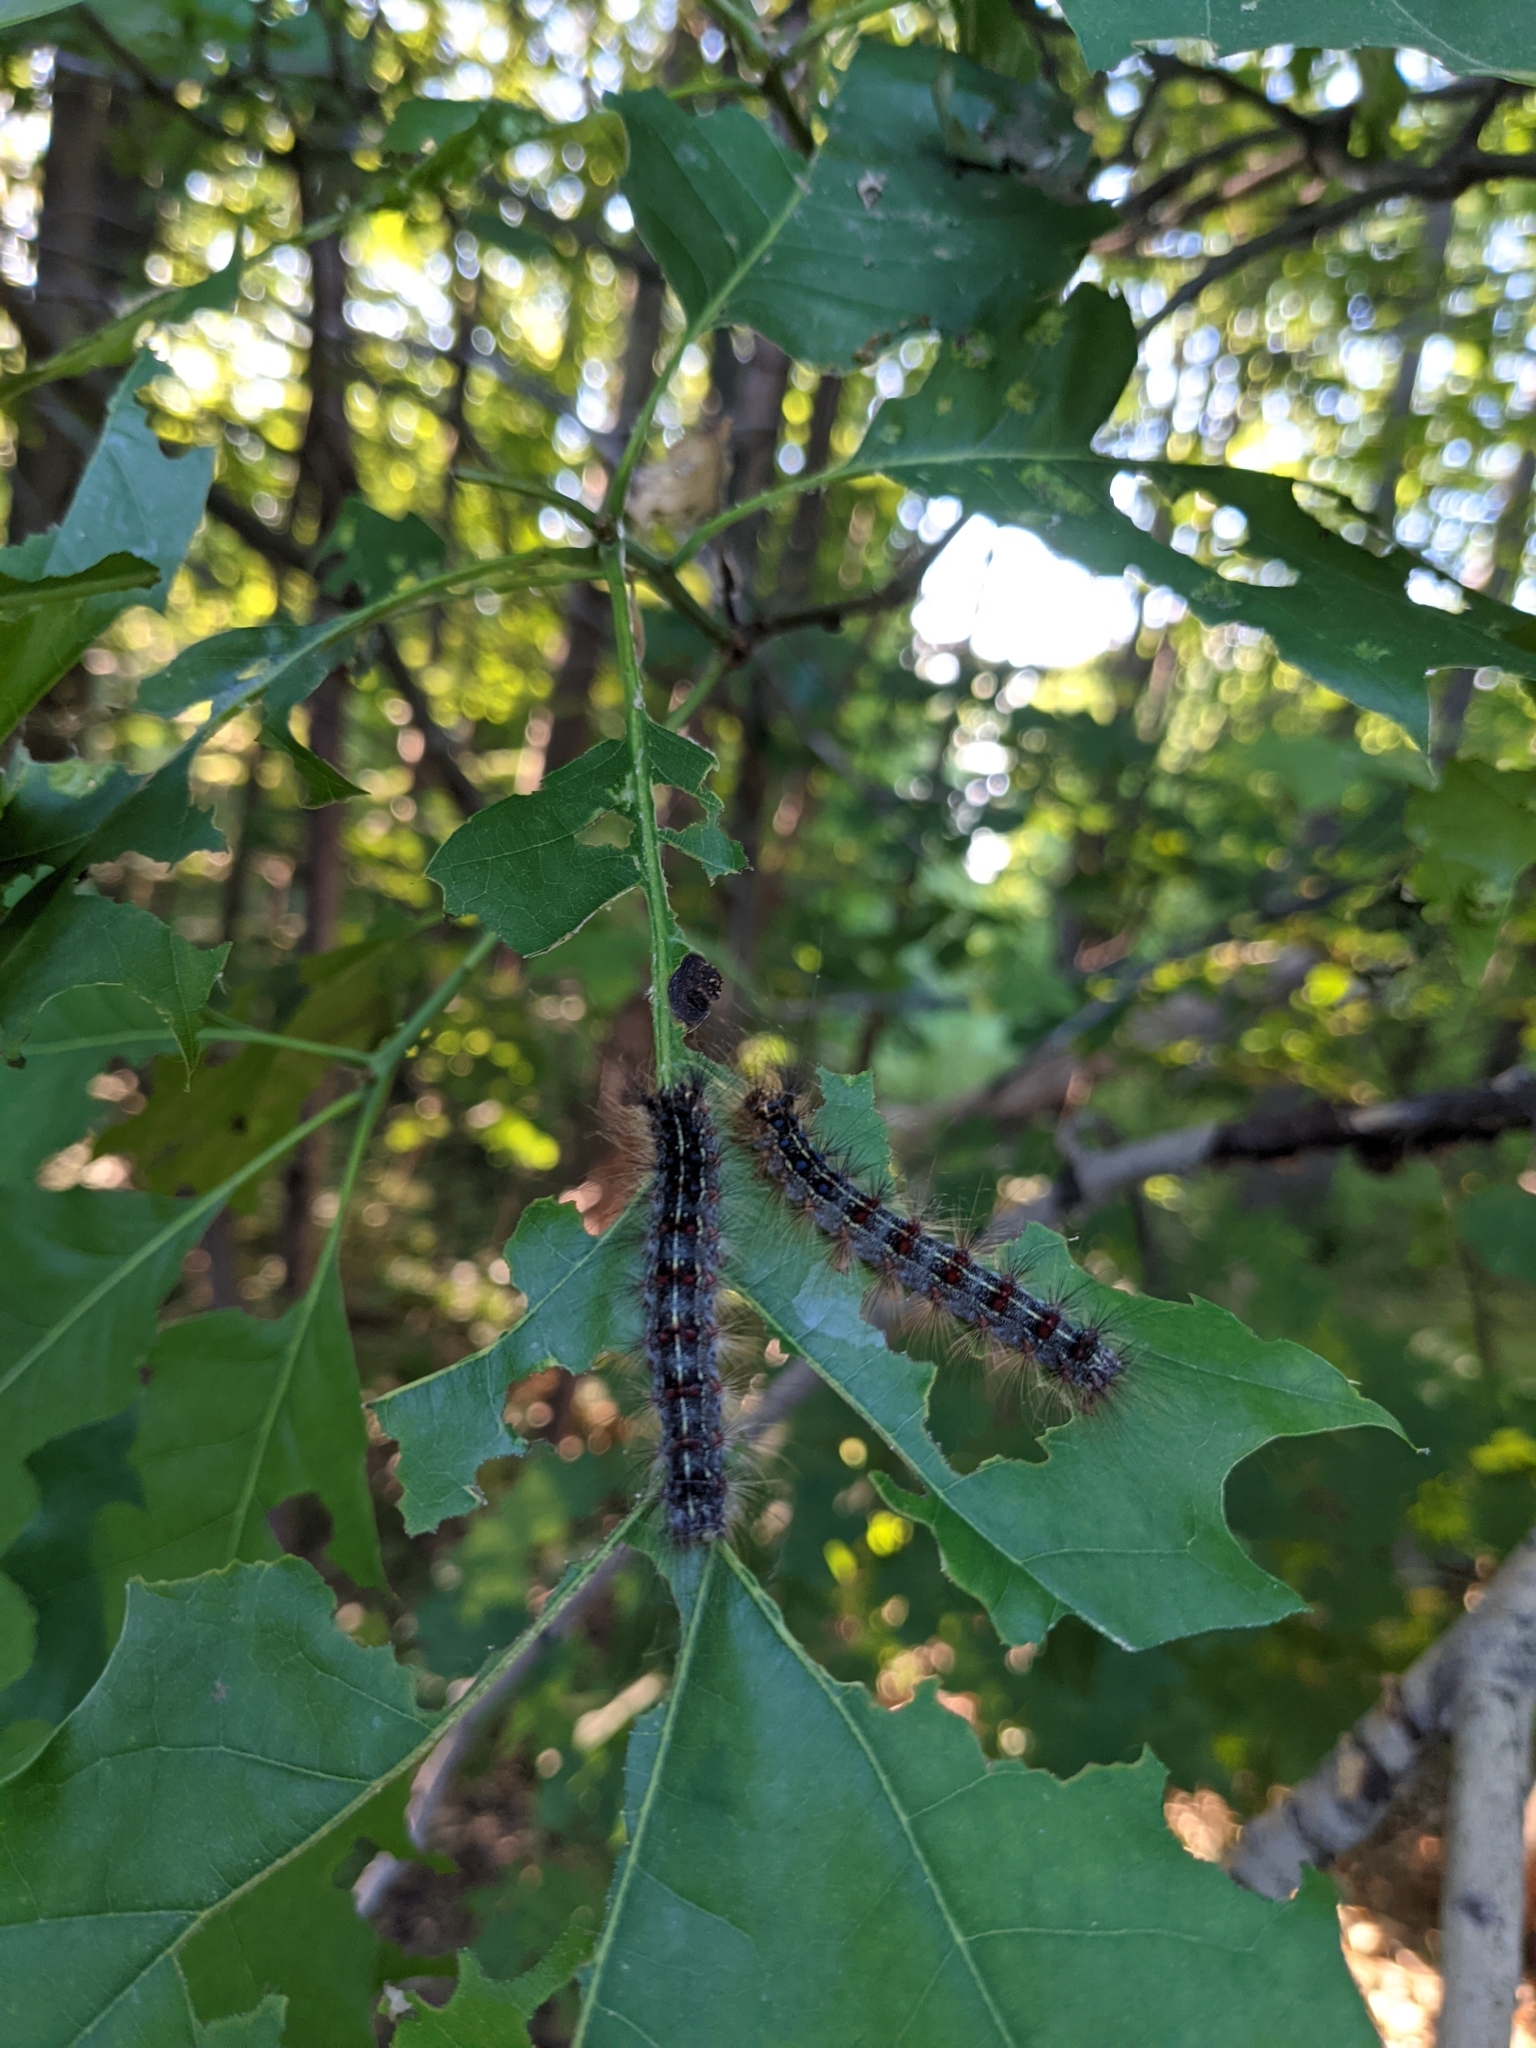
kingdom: Animalia
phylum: Arthropoda
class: Insecta
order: Lepidoptera
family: Erebidae
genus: Lymantria
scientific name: Lymantria dispar
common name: Gypsy moth
